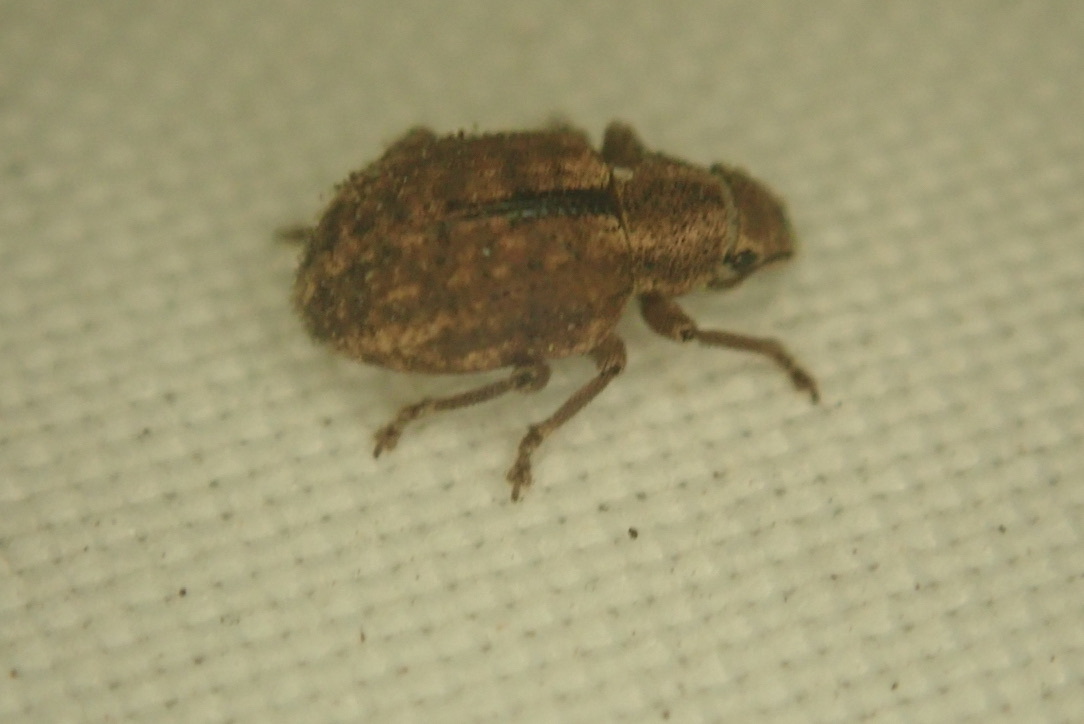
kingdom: Animalia
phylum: Arthropoda
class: Insecta
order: Coleoptera
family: Curculionidae
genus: Strophosoma
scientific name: Strophosoma melanogrammum
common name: Weevil
